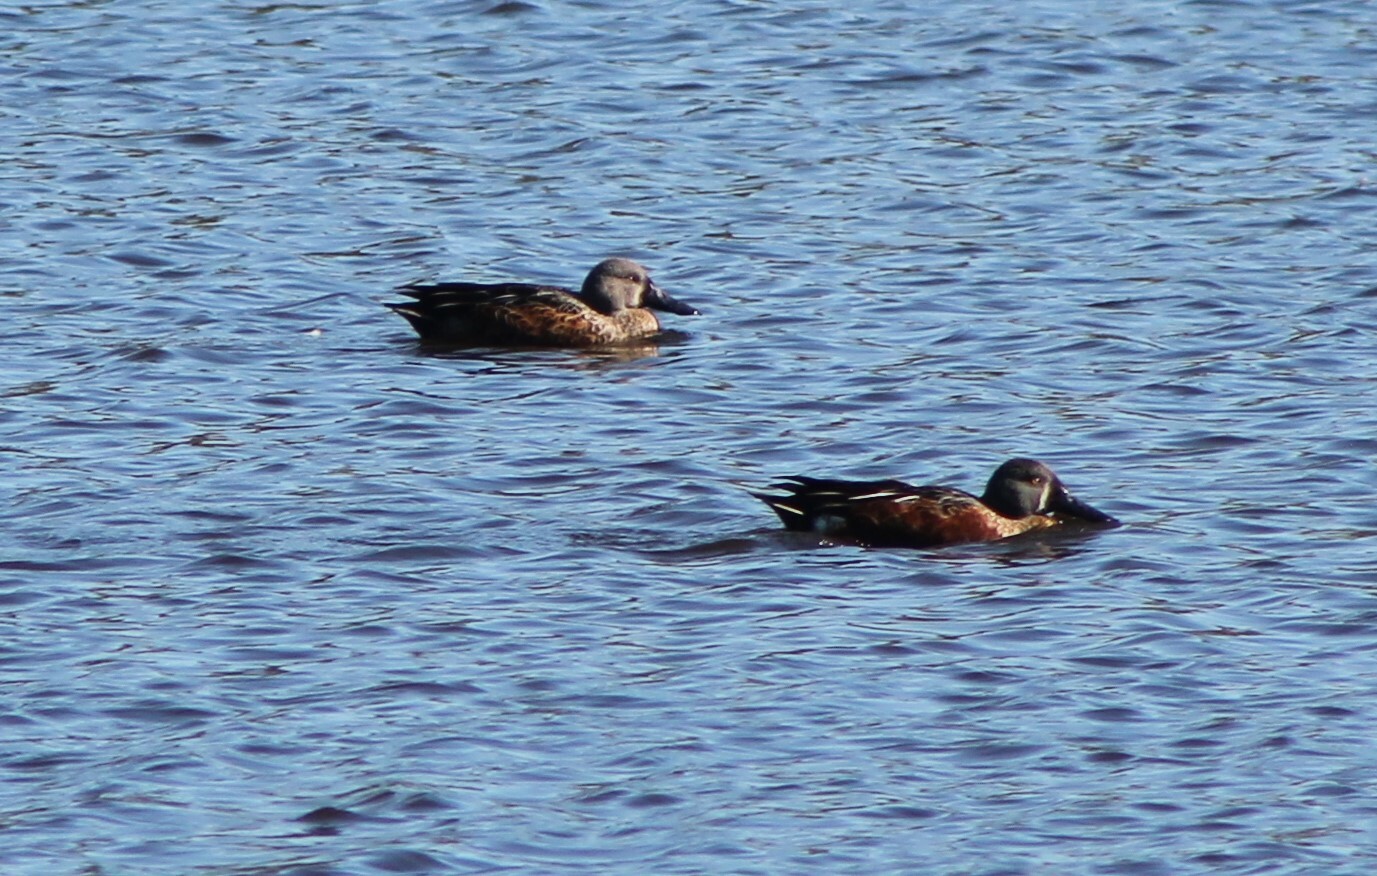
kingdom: Animalia
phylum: Chordata
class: Aves
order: Anseriformes
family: Anatidae
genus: Spatula
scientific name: Spatula rhynchotis
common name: Australian shoveler
